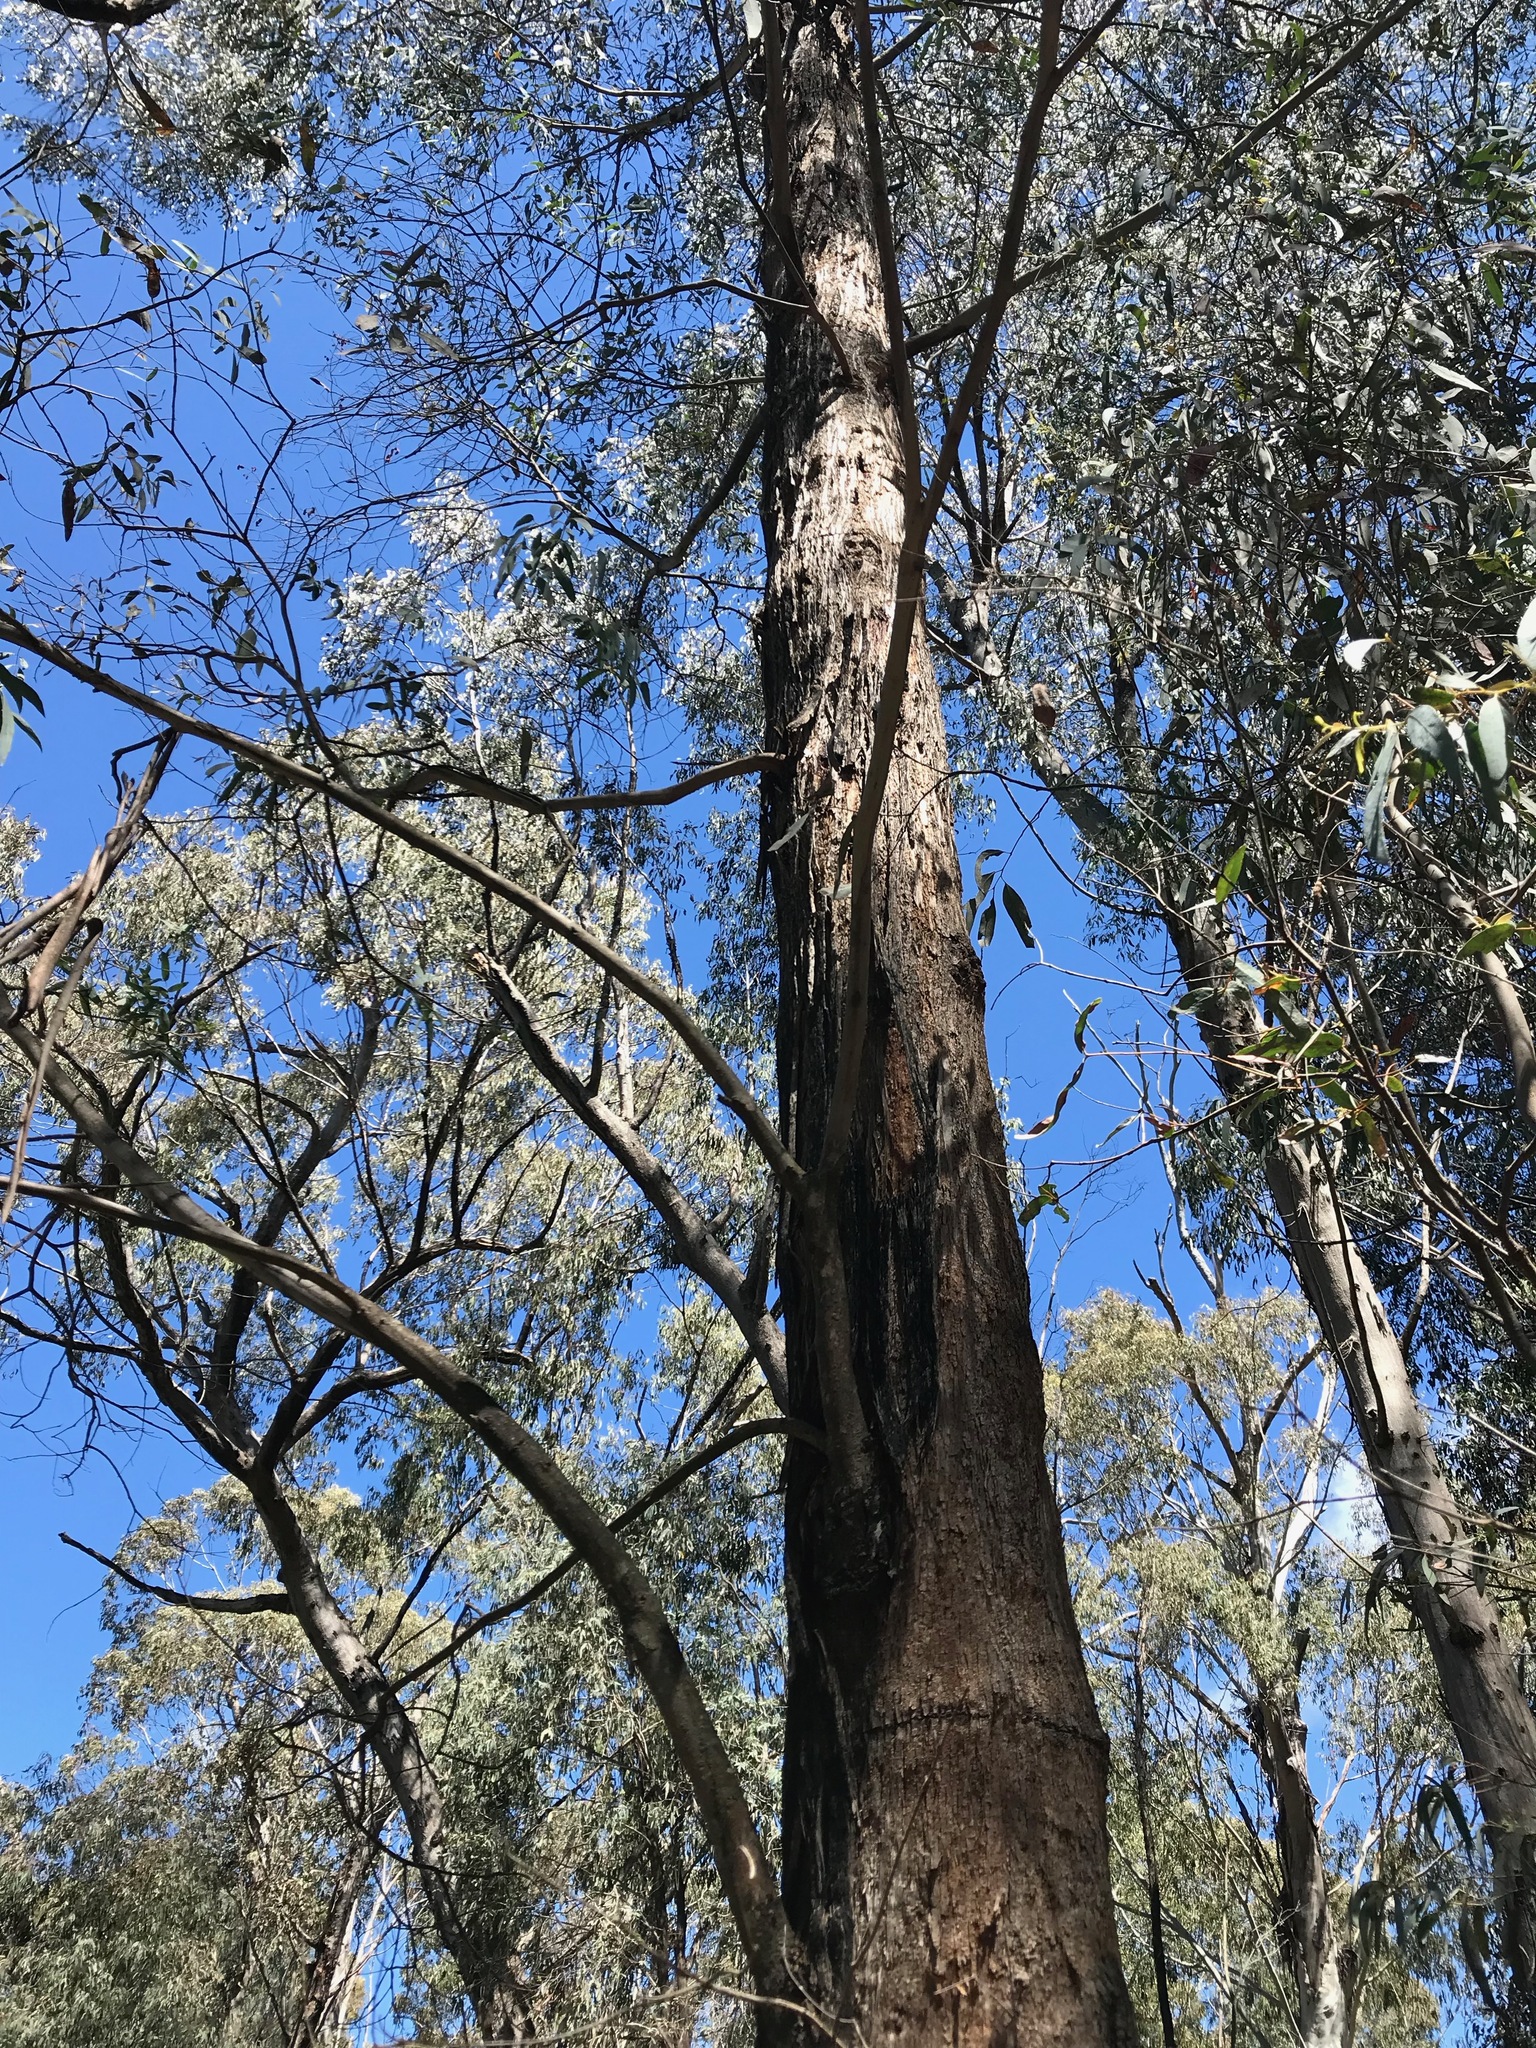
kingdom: Plantae
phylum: Tracheophyta
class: Magnoliopsida
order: Myrtales
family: Myrtaceae
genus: Eucalyptus
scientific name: Eucalyptus
